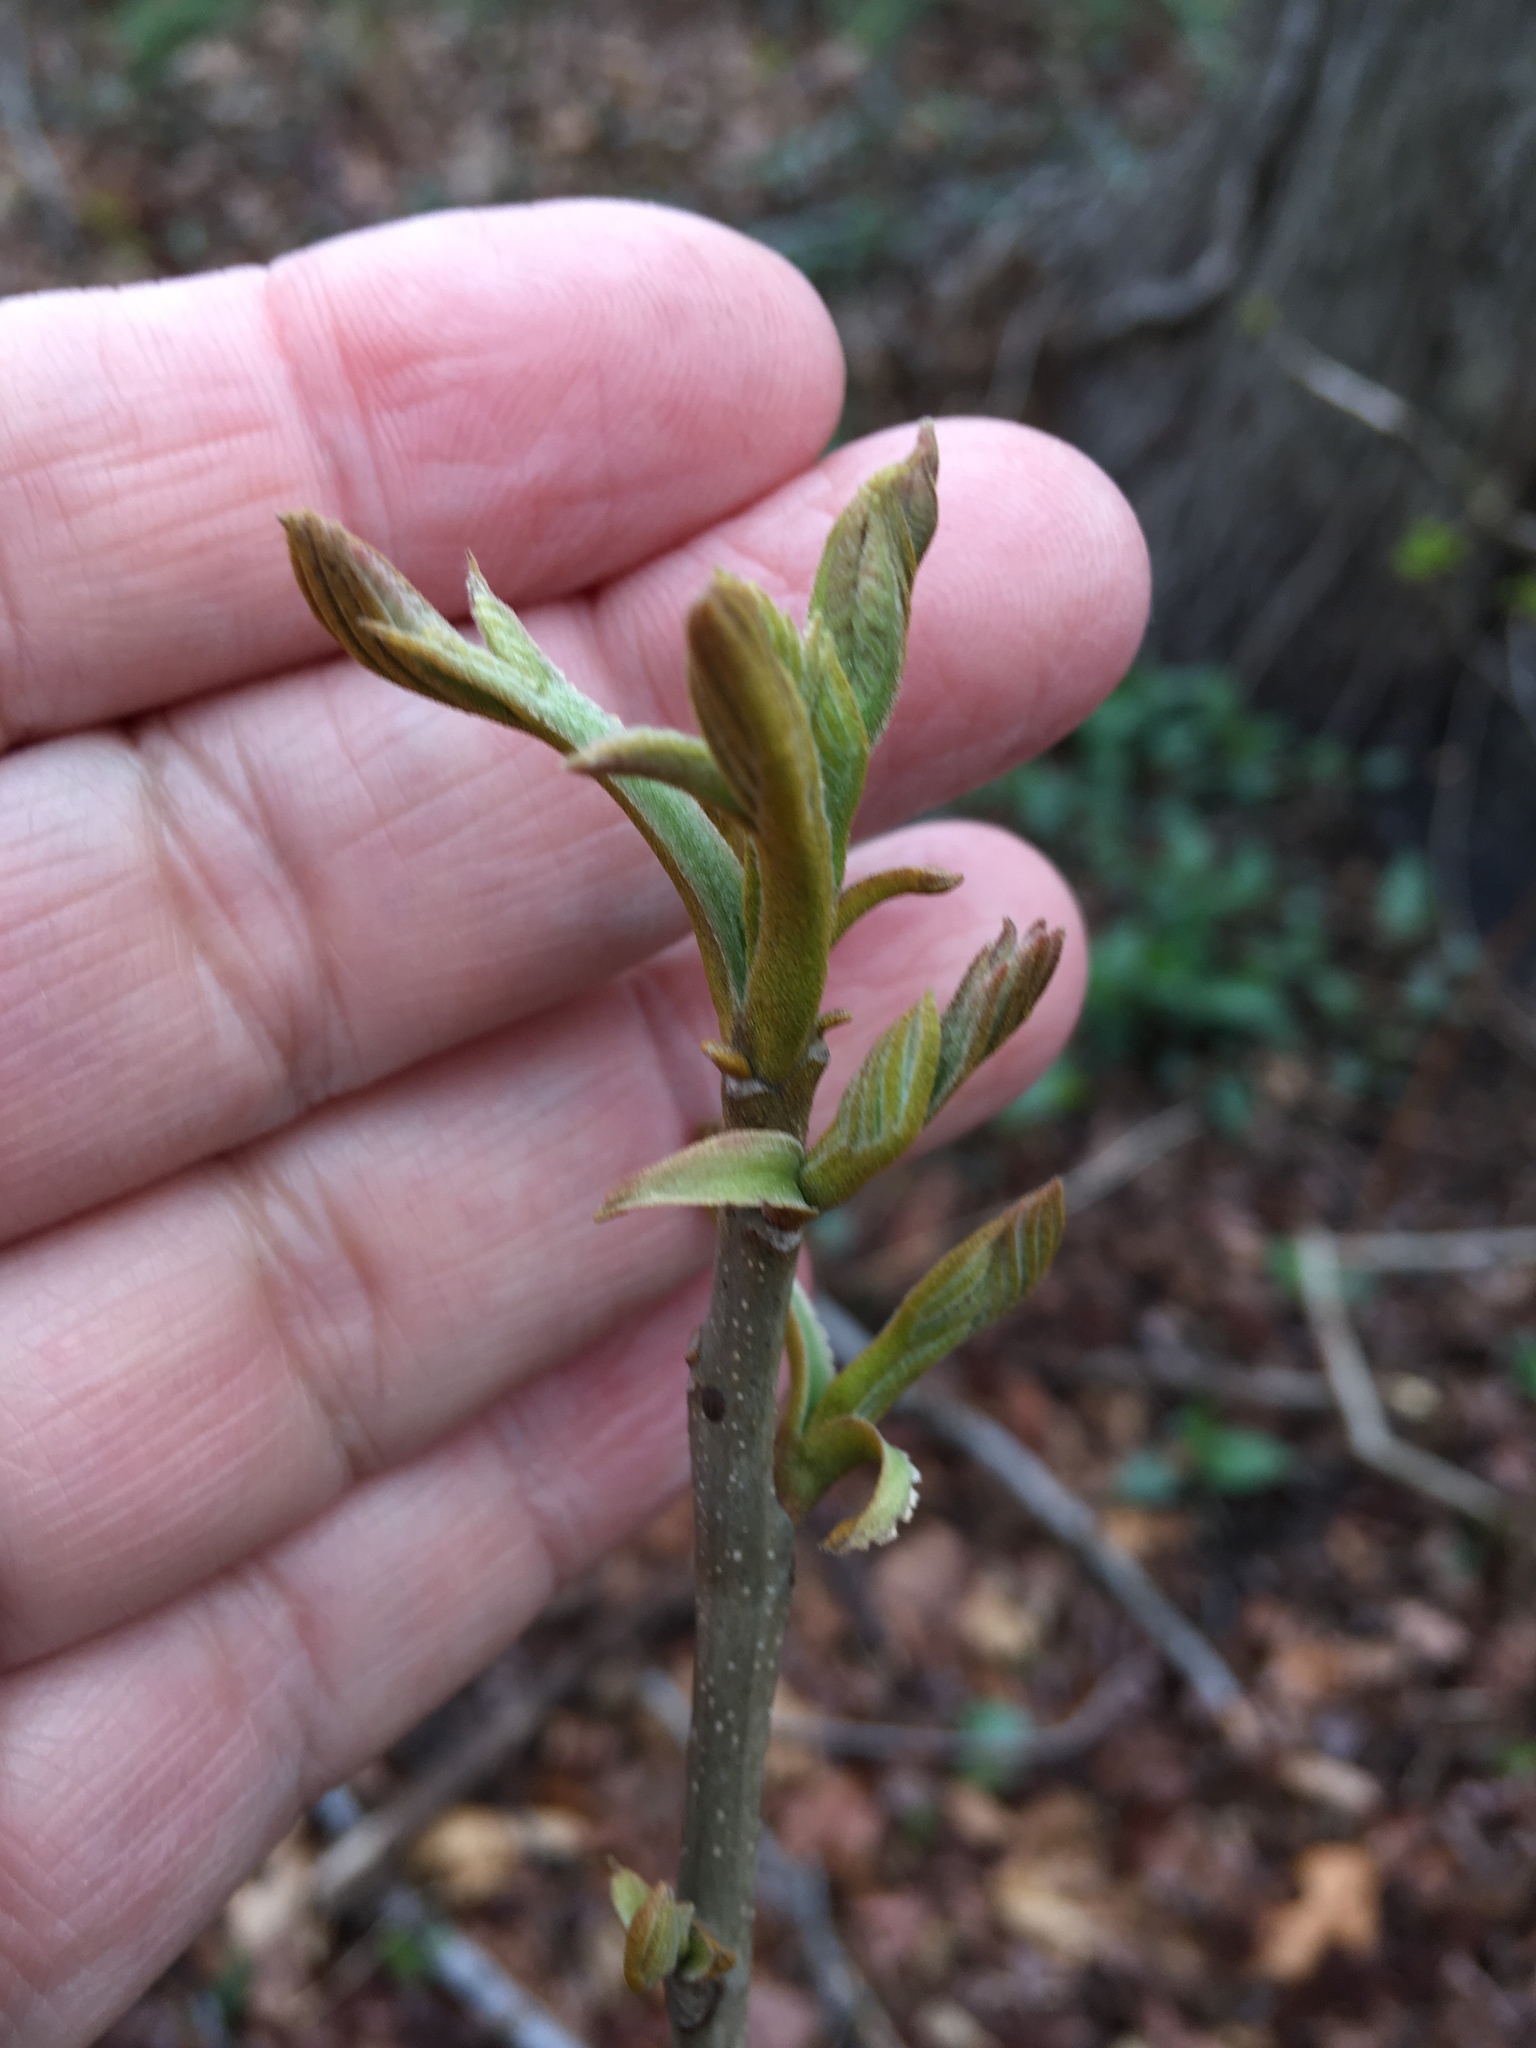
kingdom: Plantae
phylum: Tracheophyta
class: Magnoliopsida
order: Fagales
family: Juglandaceae
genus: Carya
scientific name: Carya cordiformis
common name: Bitternut hickory
